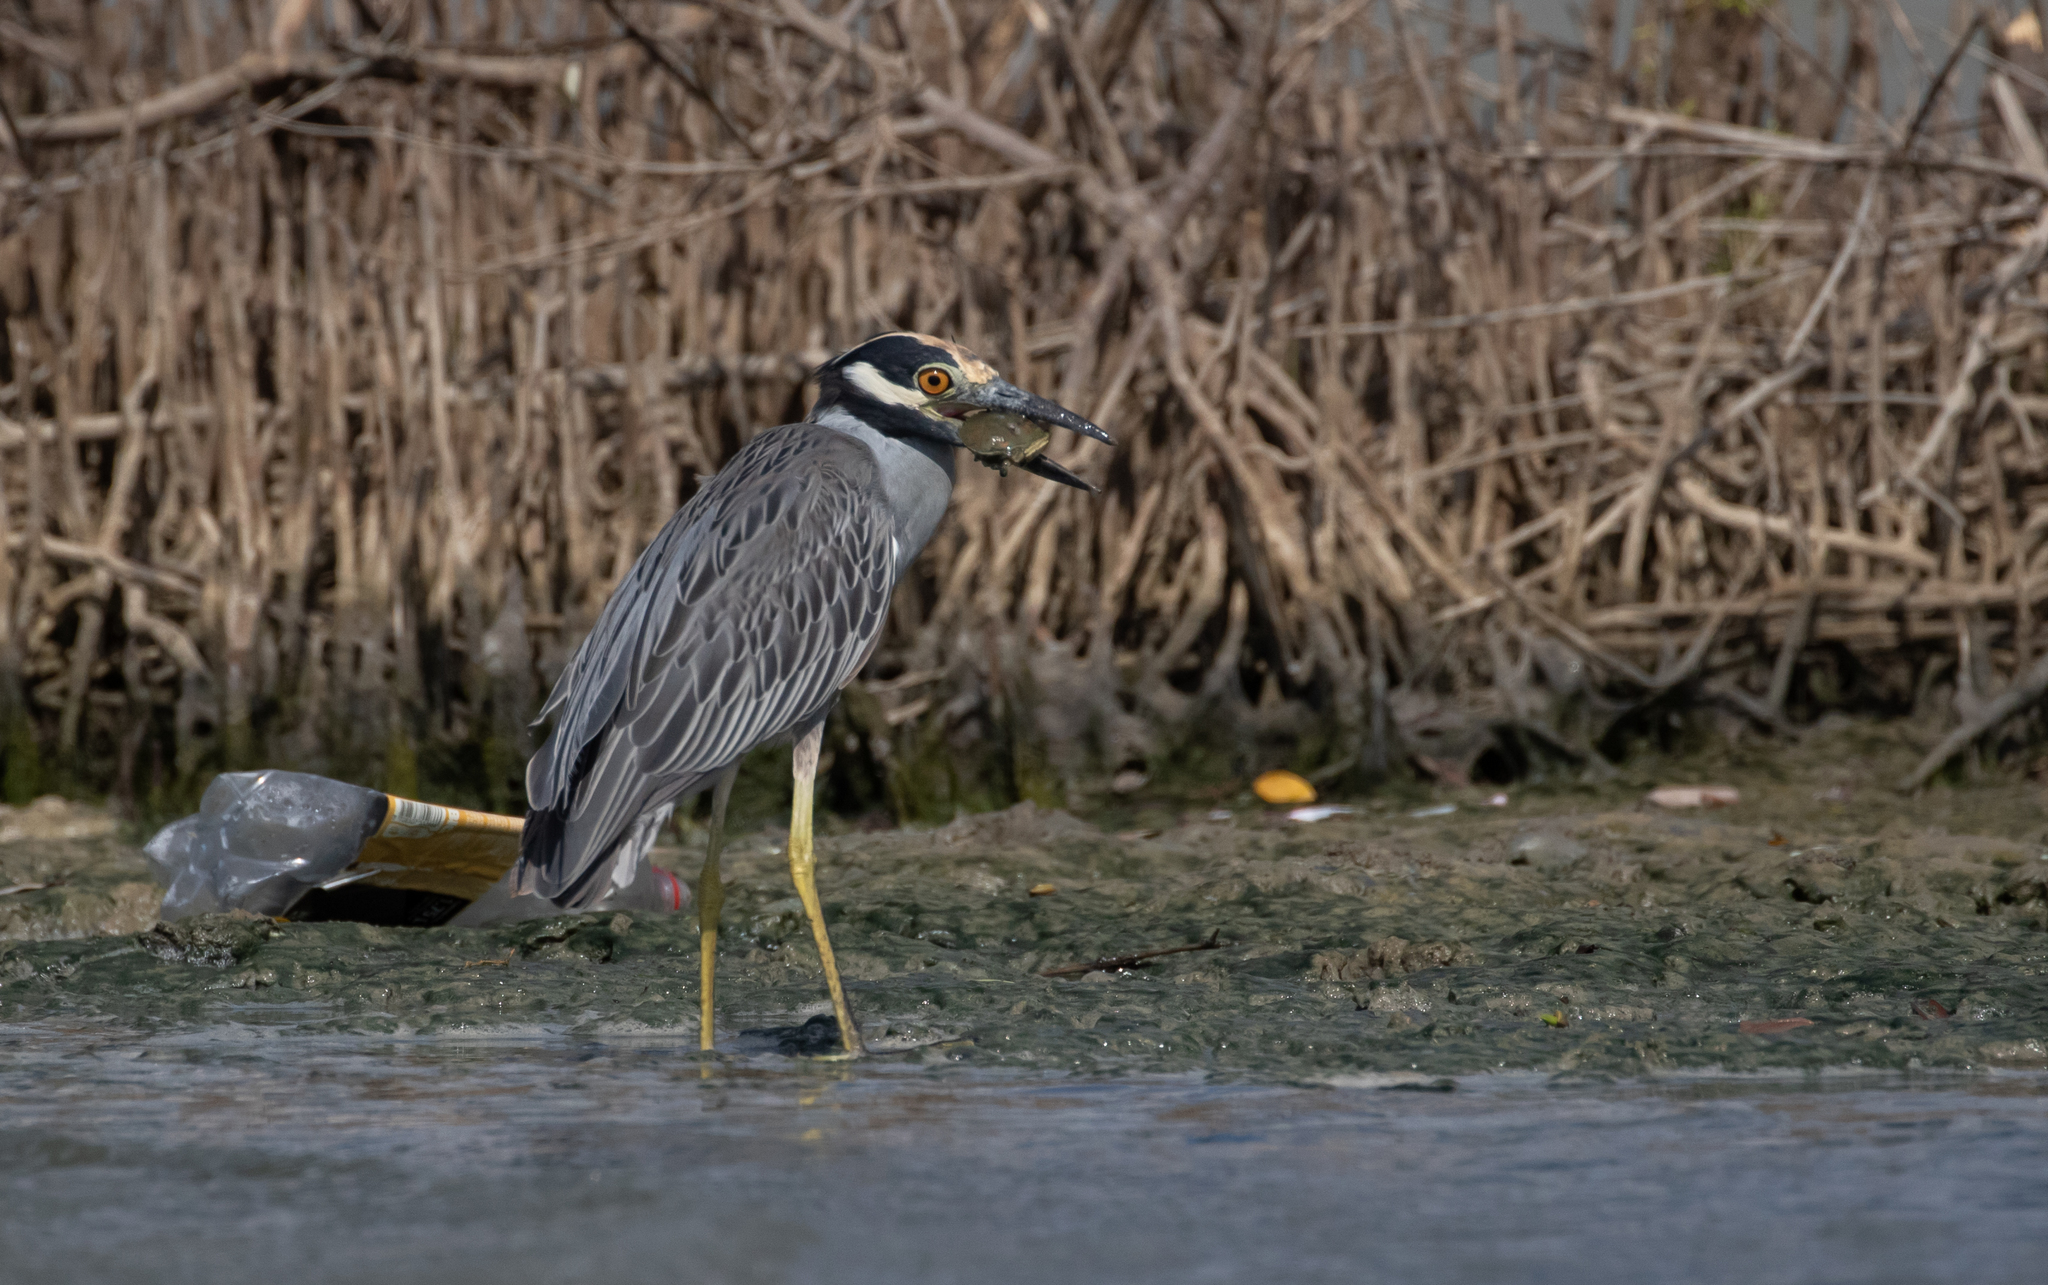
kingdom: Animalia
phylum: Chordata
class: Aves
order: Pelecaniformes
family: Ardeidae
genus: Nyctanassa
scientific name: Nyctanassa violacea
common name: Yellow-crowned night heron
